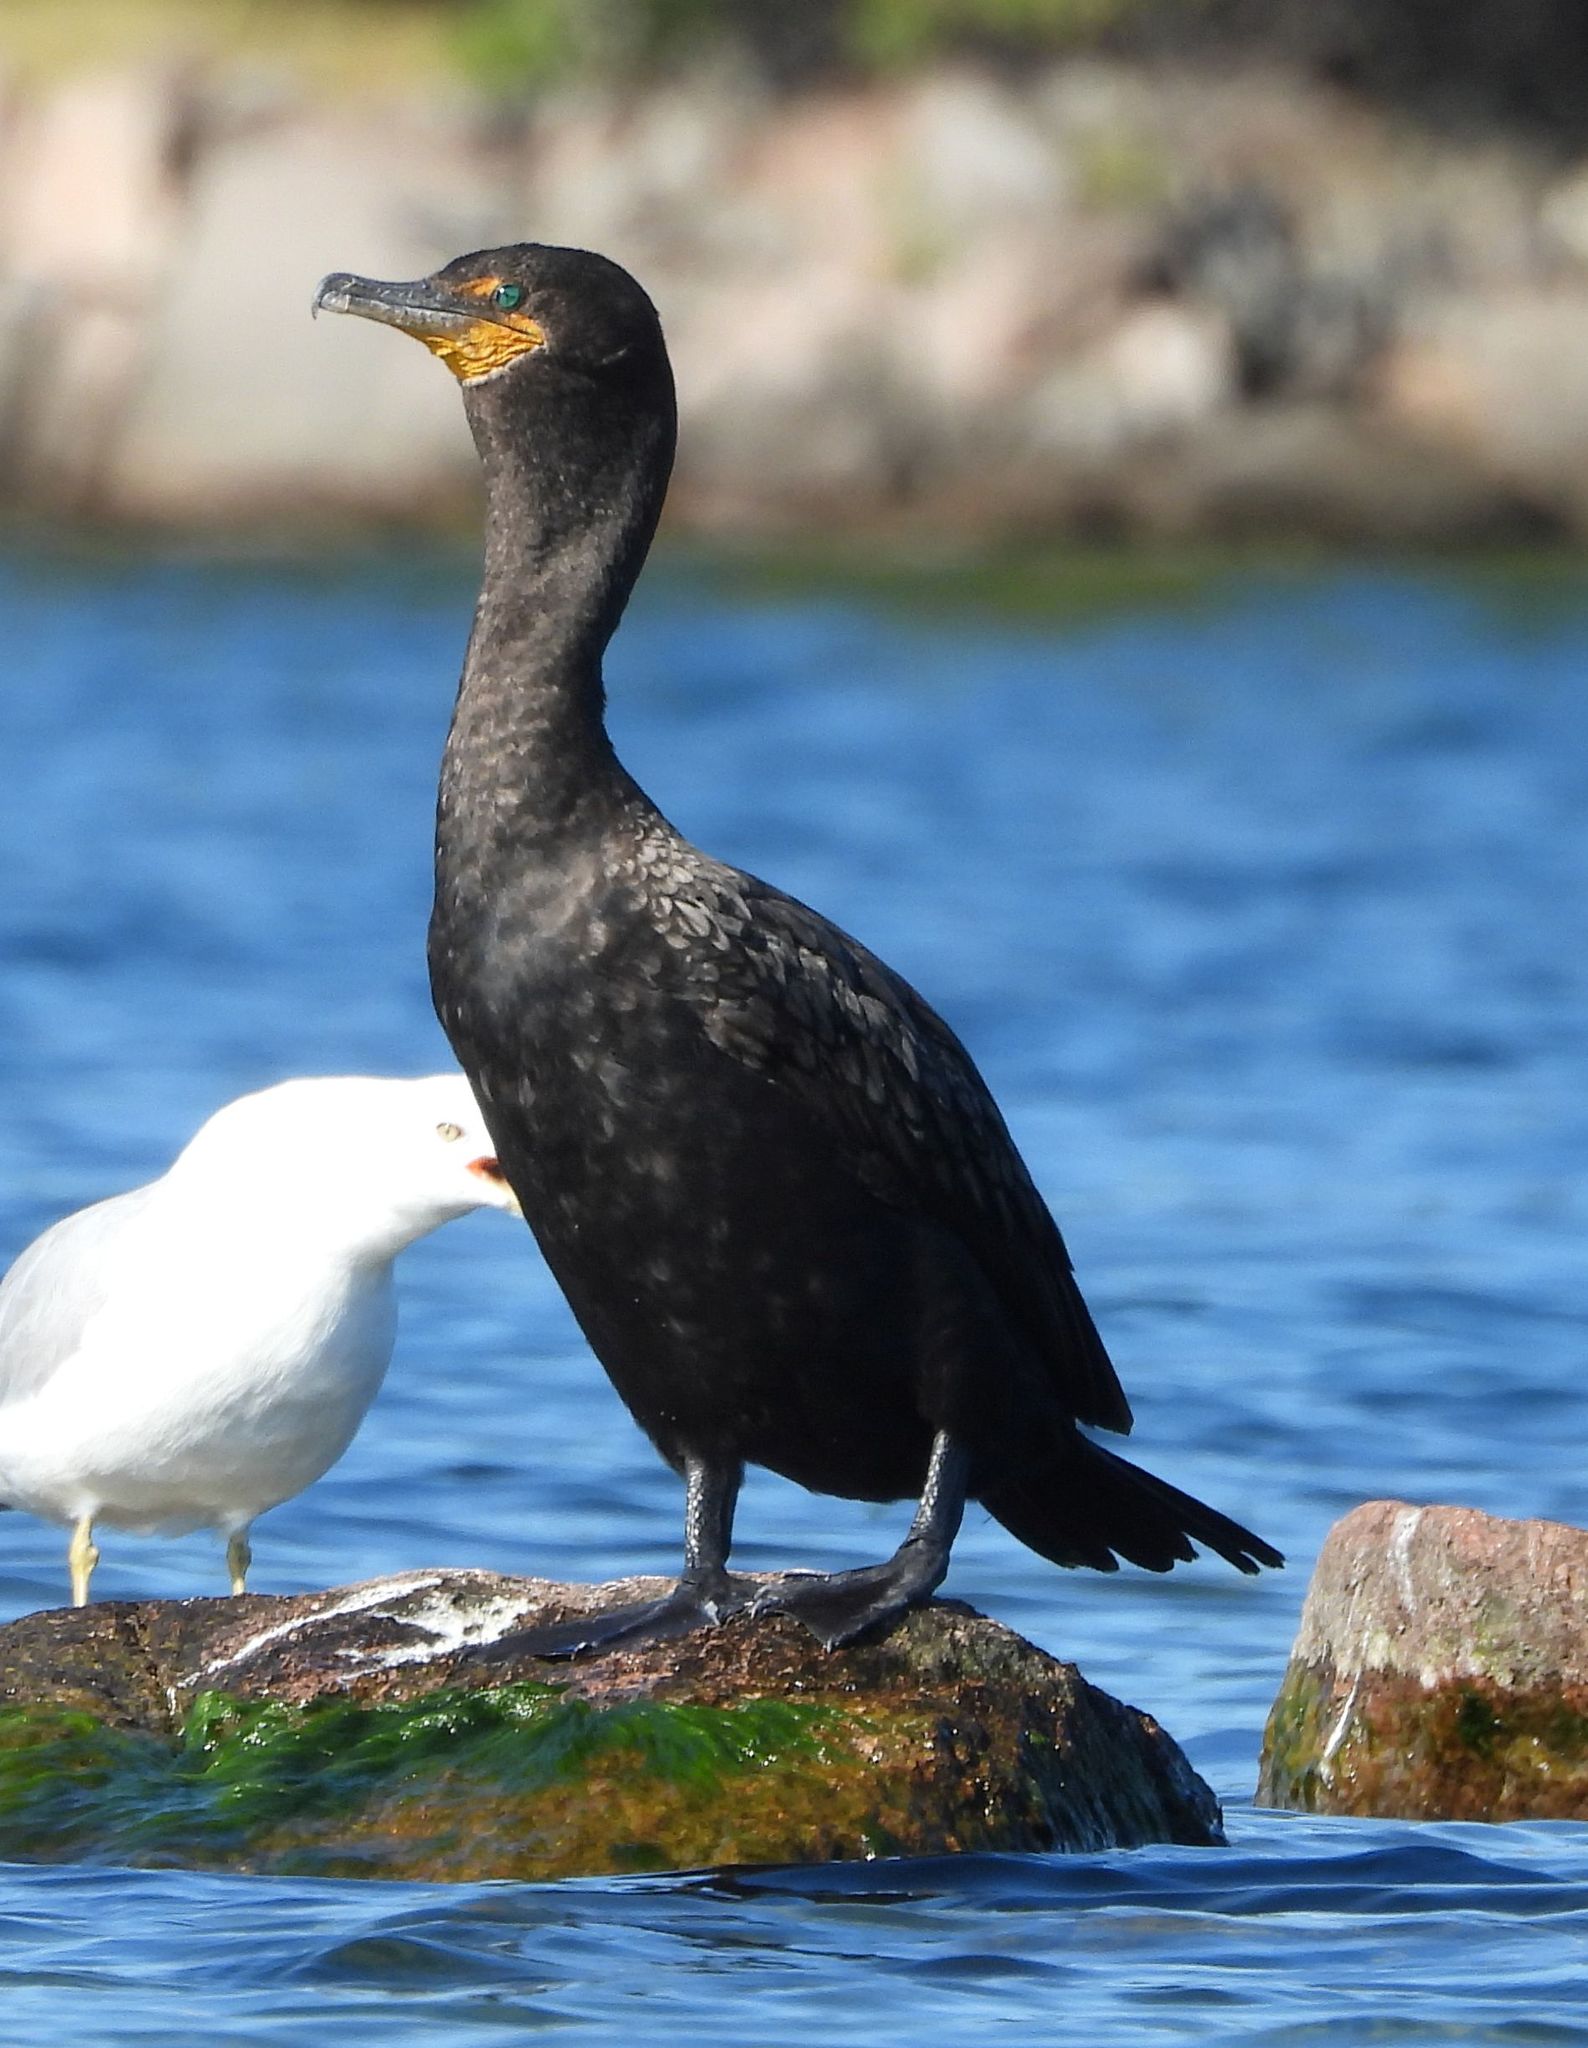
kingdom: Animalia
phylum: Chordata
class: Aves
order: Suliformes
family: Phalacrocoracidae
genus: Phalacrocorax
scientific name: Phalacrocorax auritus
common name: Double-crested cormorant
